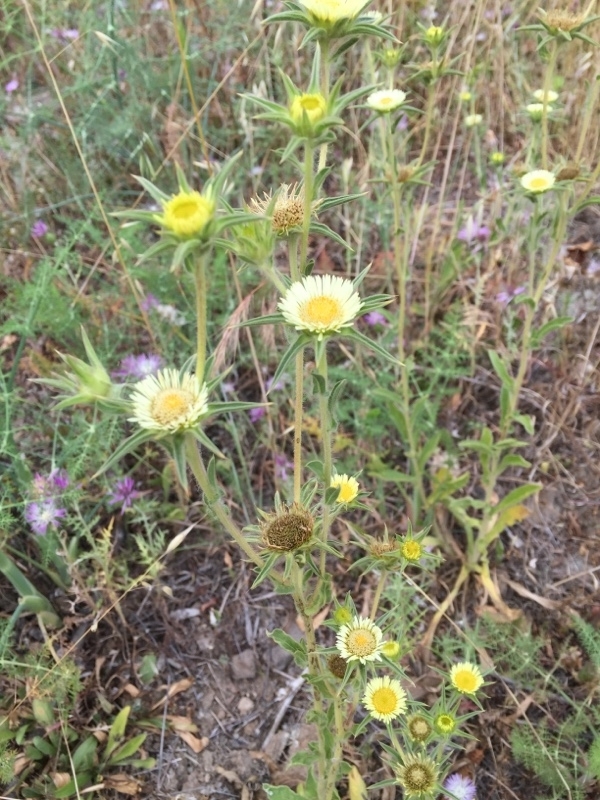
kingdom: Plantae
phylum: Tracheophyta
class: Magnoliopsida
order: Asterales
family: Asteraceae
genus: Pallenis
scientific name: Pallenis spinosa
